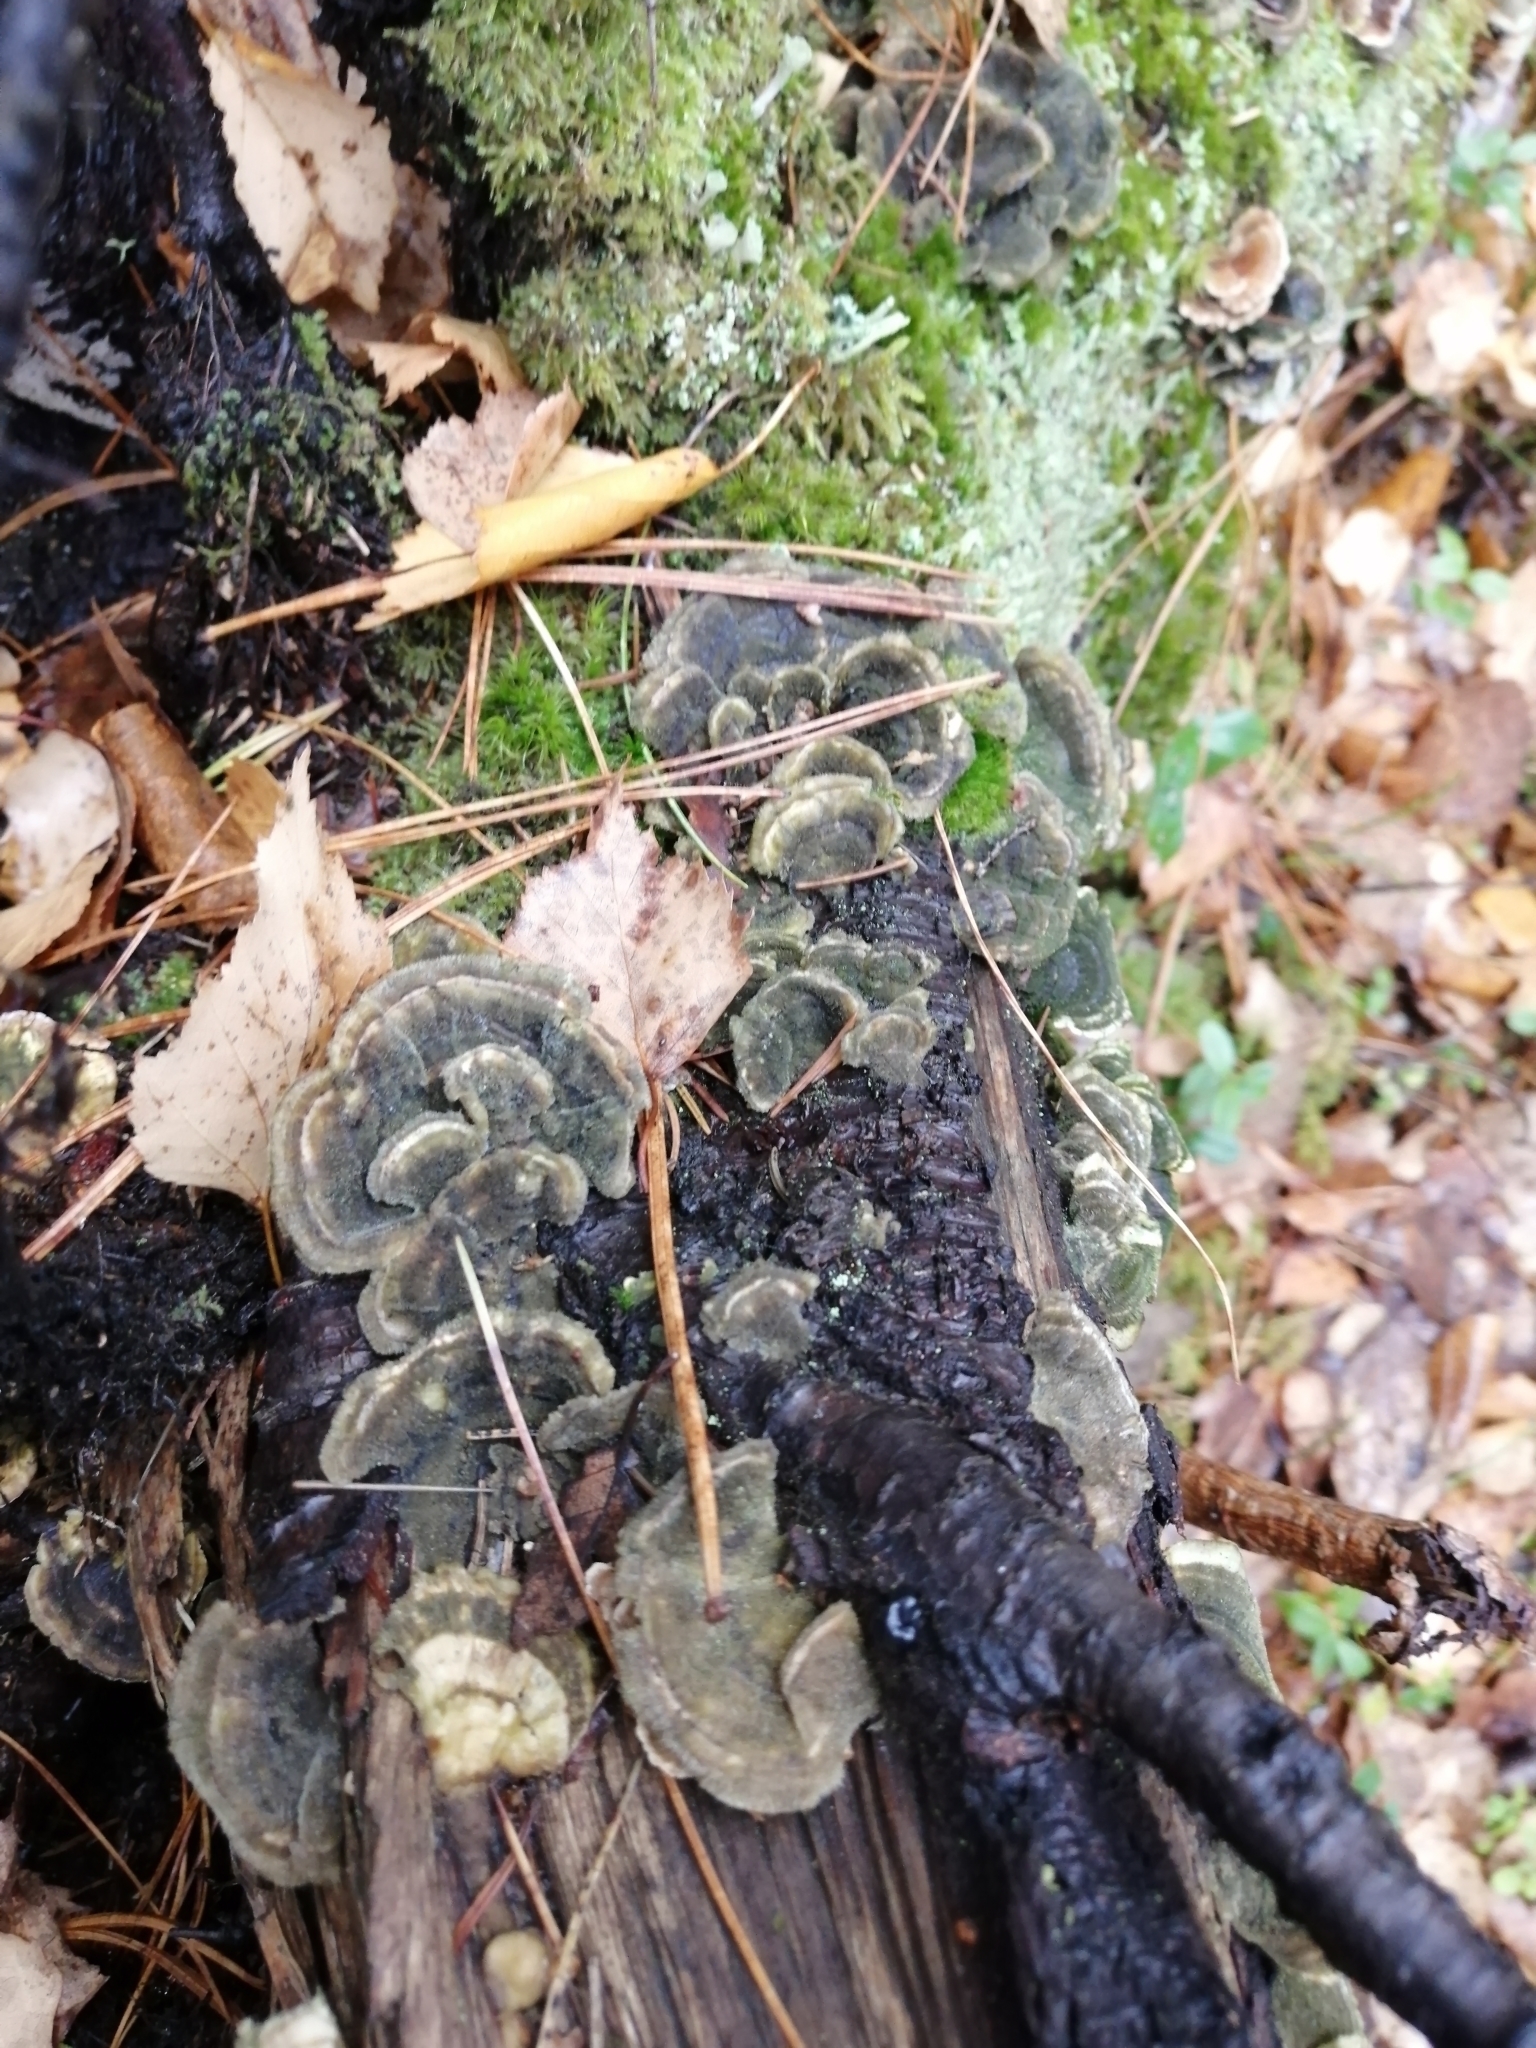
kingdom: Fungi
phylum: Basidiomycota
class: Agaricomycetes
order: Polyporales
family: Polyporaceae
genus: Trametes
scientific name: Trametes versicolor
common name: Turkeytail
